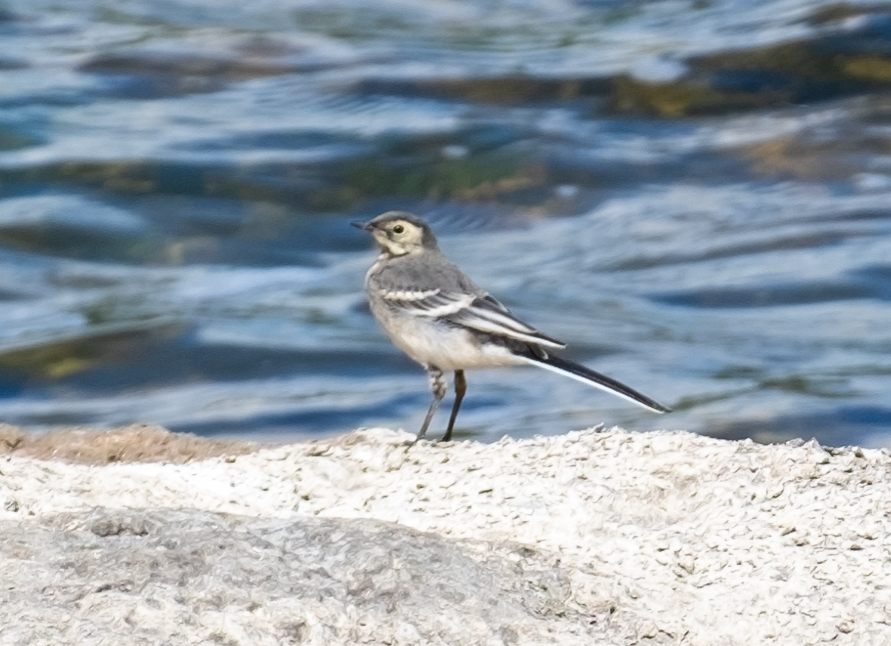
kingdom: Animalia
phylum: Chordata
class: Aves
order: Passeriformes
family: Motacillidae
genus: Motacilla
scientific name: Motacilla alba
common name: White wagtail
